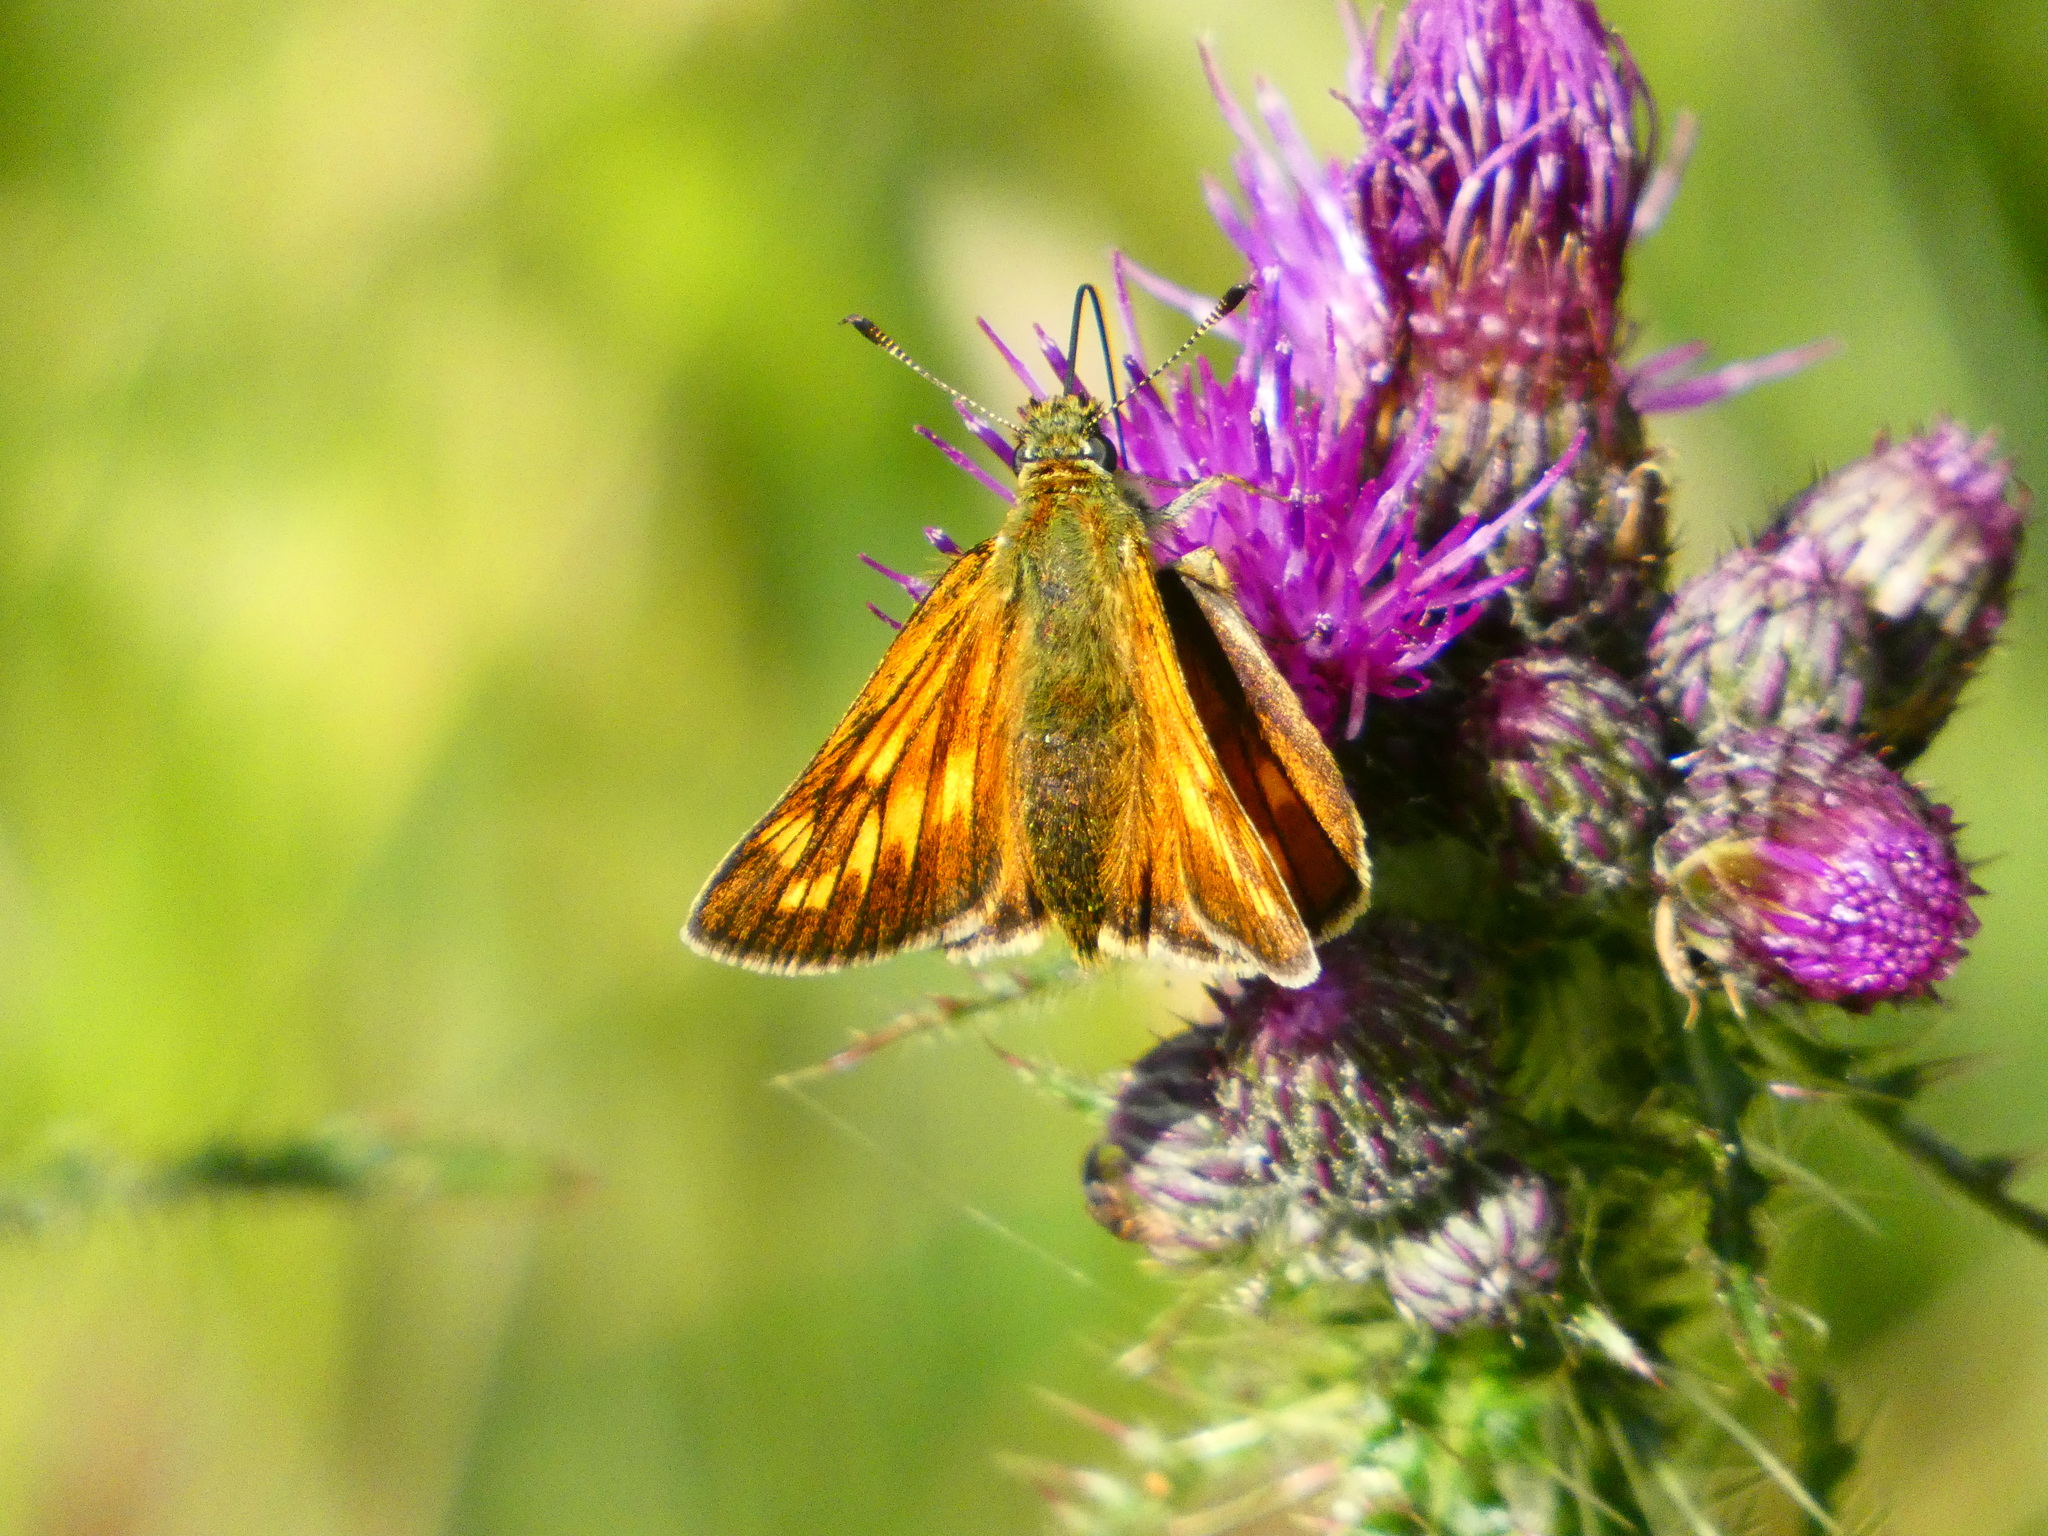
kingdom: Animalia
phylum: Arthropoda
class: Insecta
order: Lepidoptera
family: Hesperiidae
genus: Ochlodes
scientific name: Ochlodes venata
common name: Large skipper
